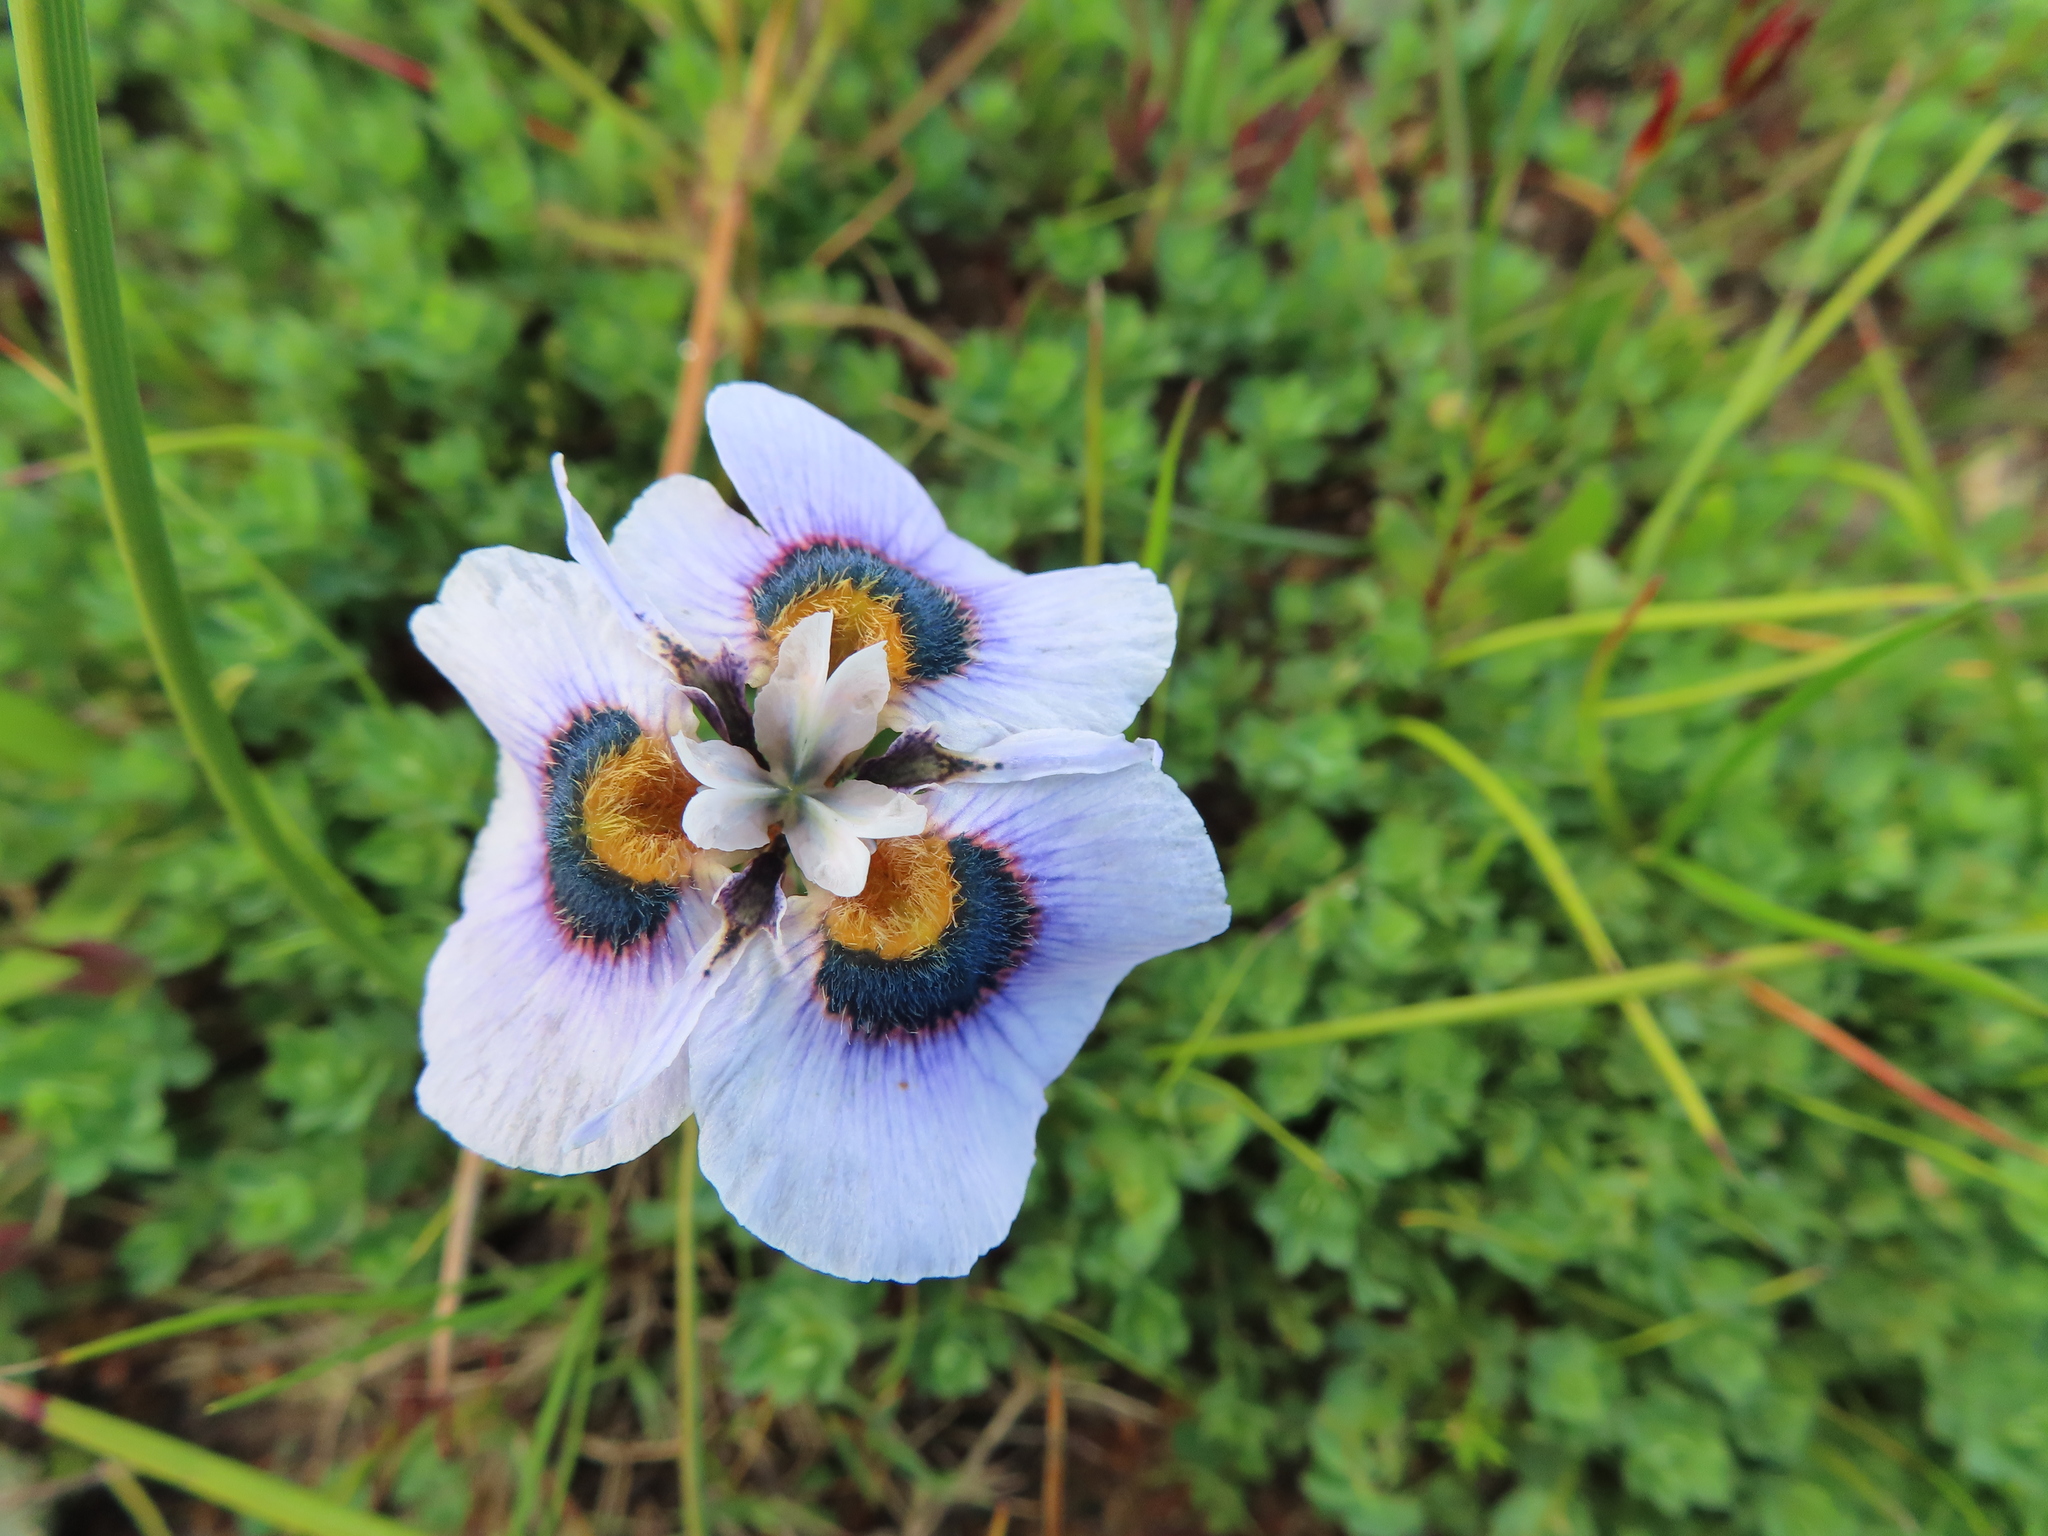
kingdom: Plantae
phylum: Tracheophyta
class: Liliopsida
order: Asparagales
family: Iridaceae
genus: Moraea
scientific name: Moraea villosa
